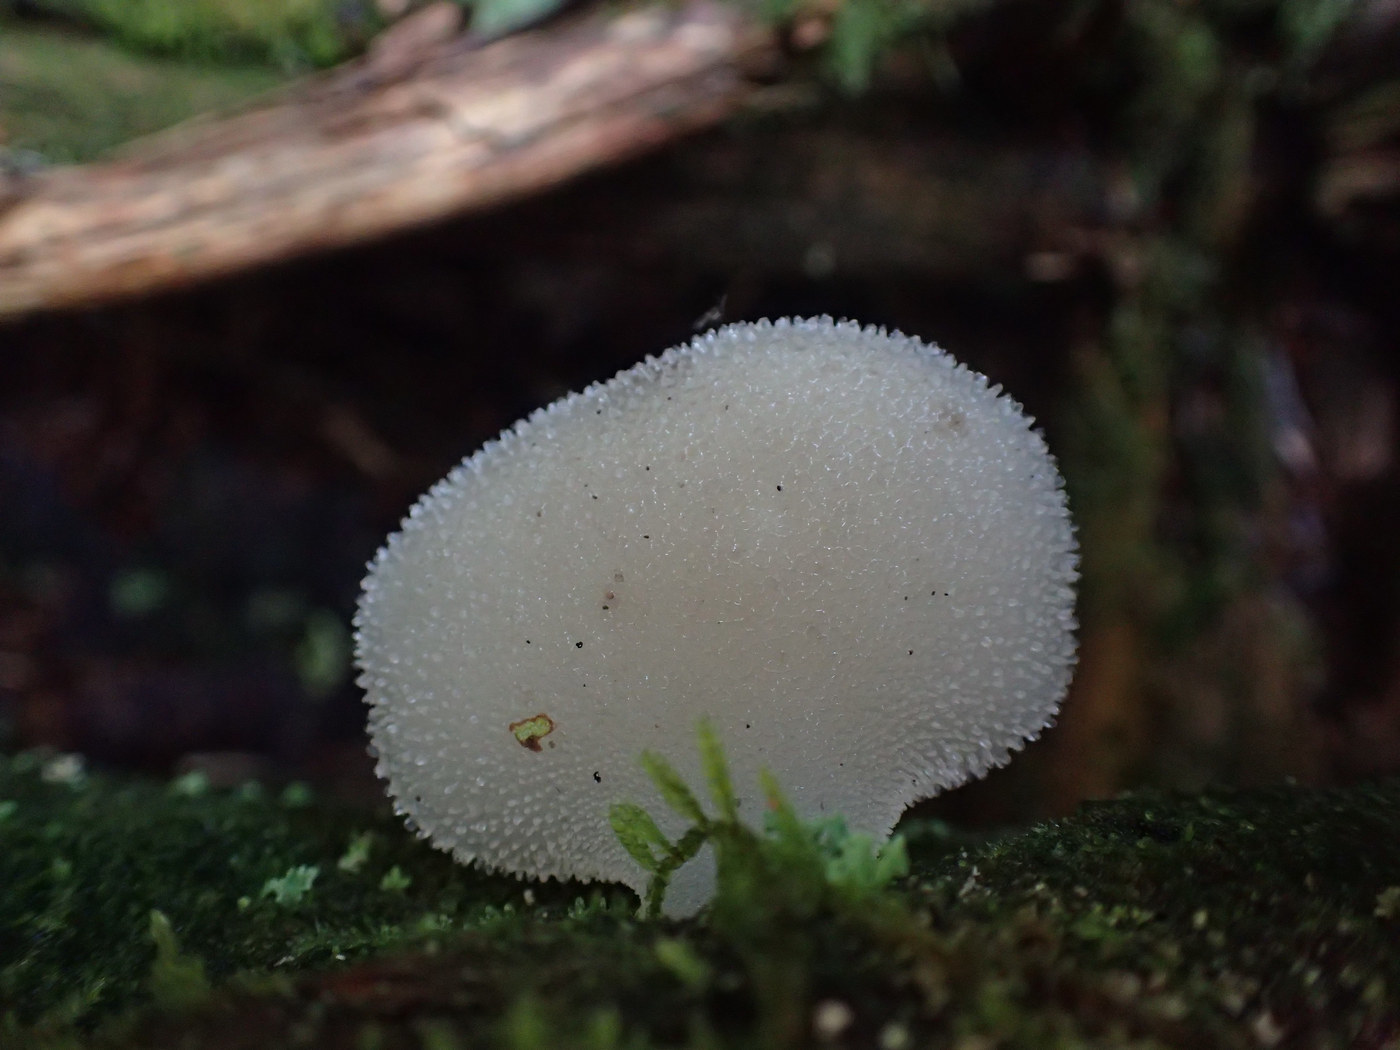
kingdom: Fungi
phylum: Basidiomycota
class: Agaricomycetes
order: Auriculariales
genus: Pseudohydnum
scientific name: Pseudohydnum gelatinosum
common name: Jelly tongue
